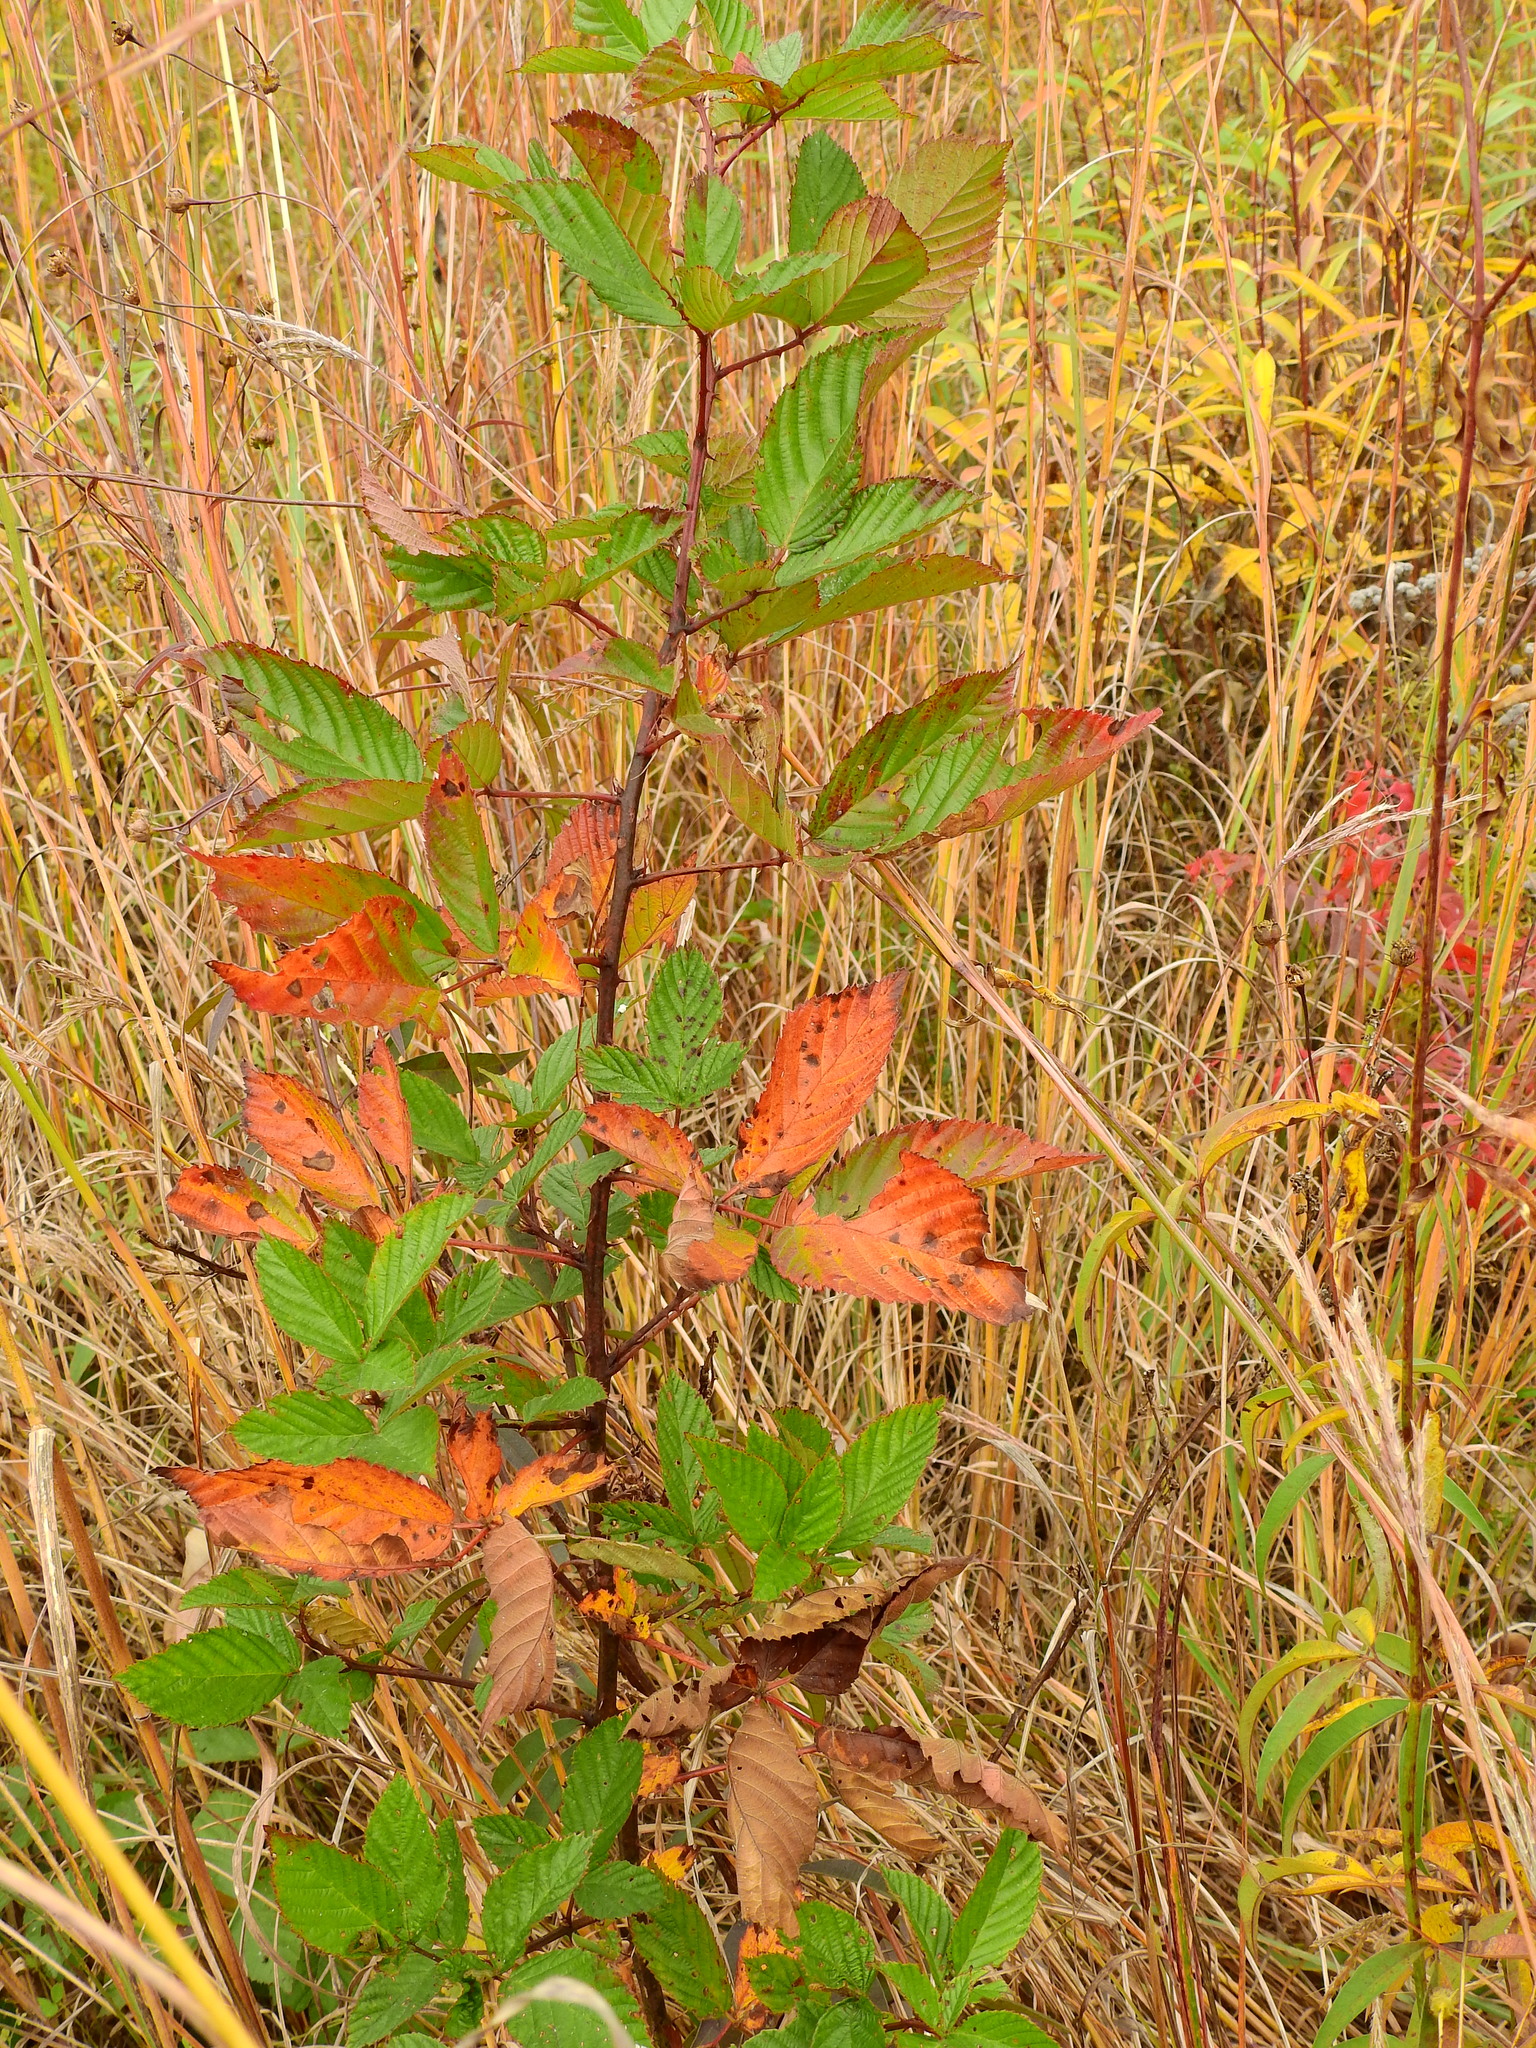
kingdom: Plantae
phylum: Tracheophyta
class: Magnoliopsida
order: Rosales
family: Rosaceae
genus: Rubus
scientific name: Rubus allegheniensis
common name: Allegheny blackberry
